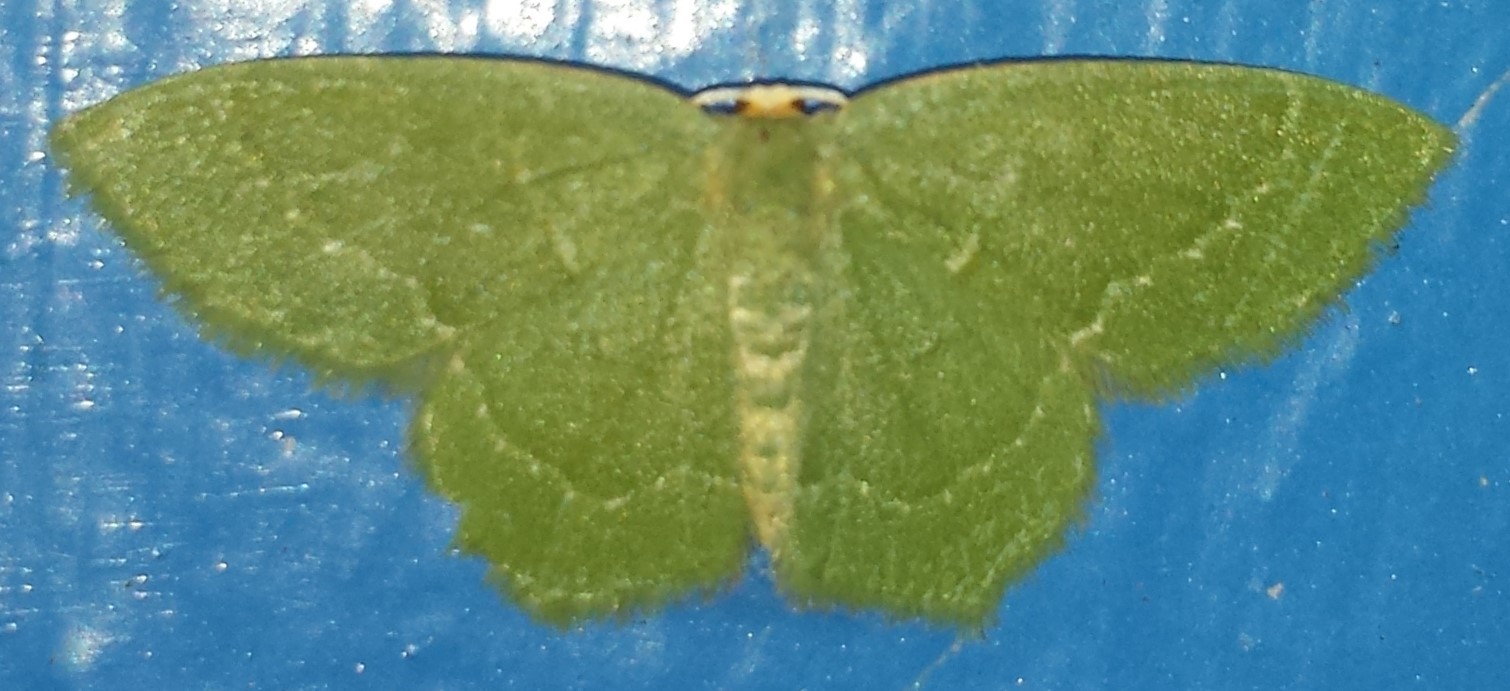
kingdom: Animalia
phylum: Arthropoda
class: Insecta
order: Lepidoptera
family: Geometridae
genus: Thalera
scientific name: Thalera pistasciaria
